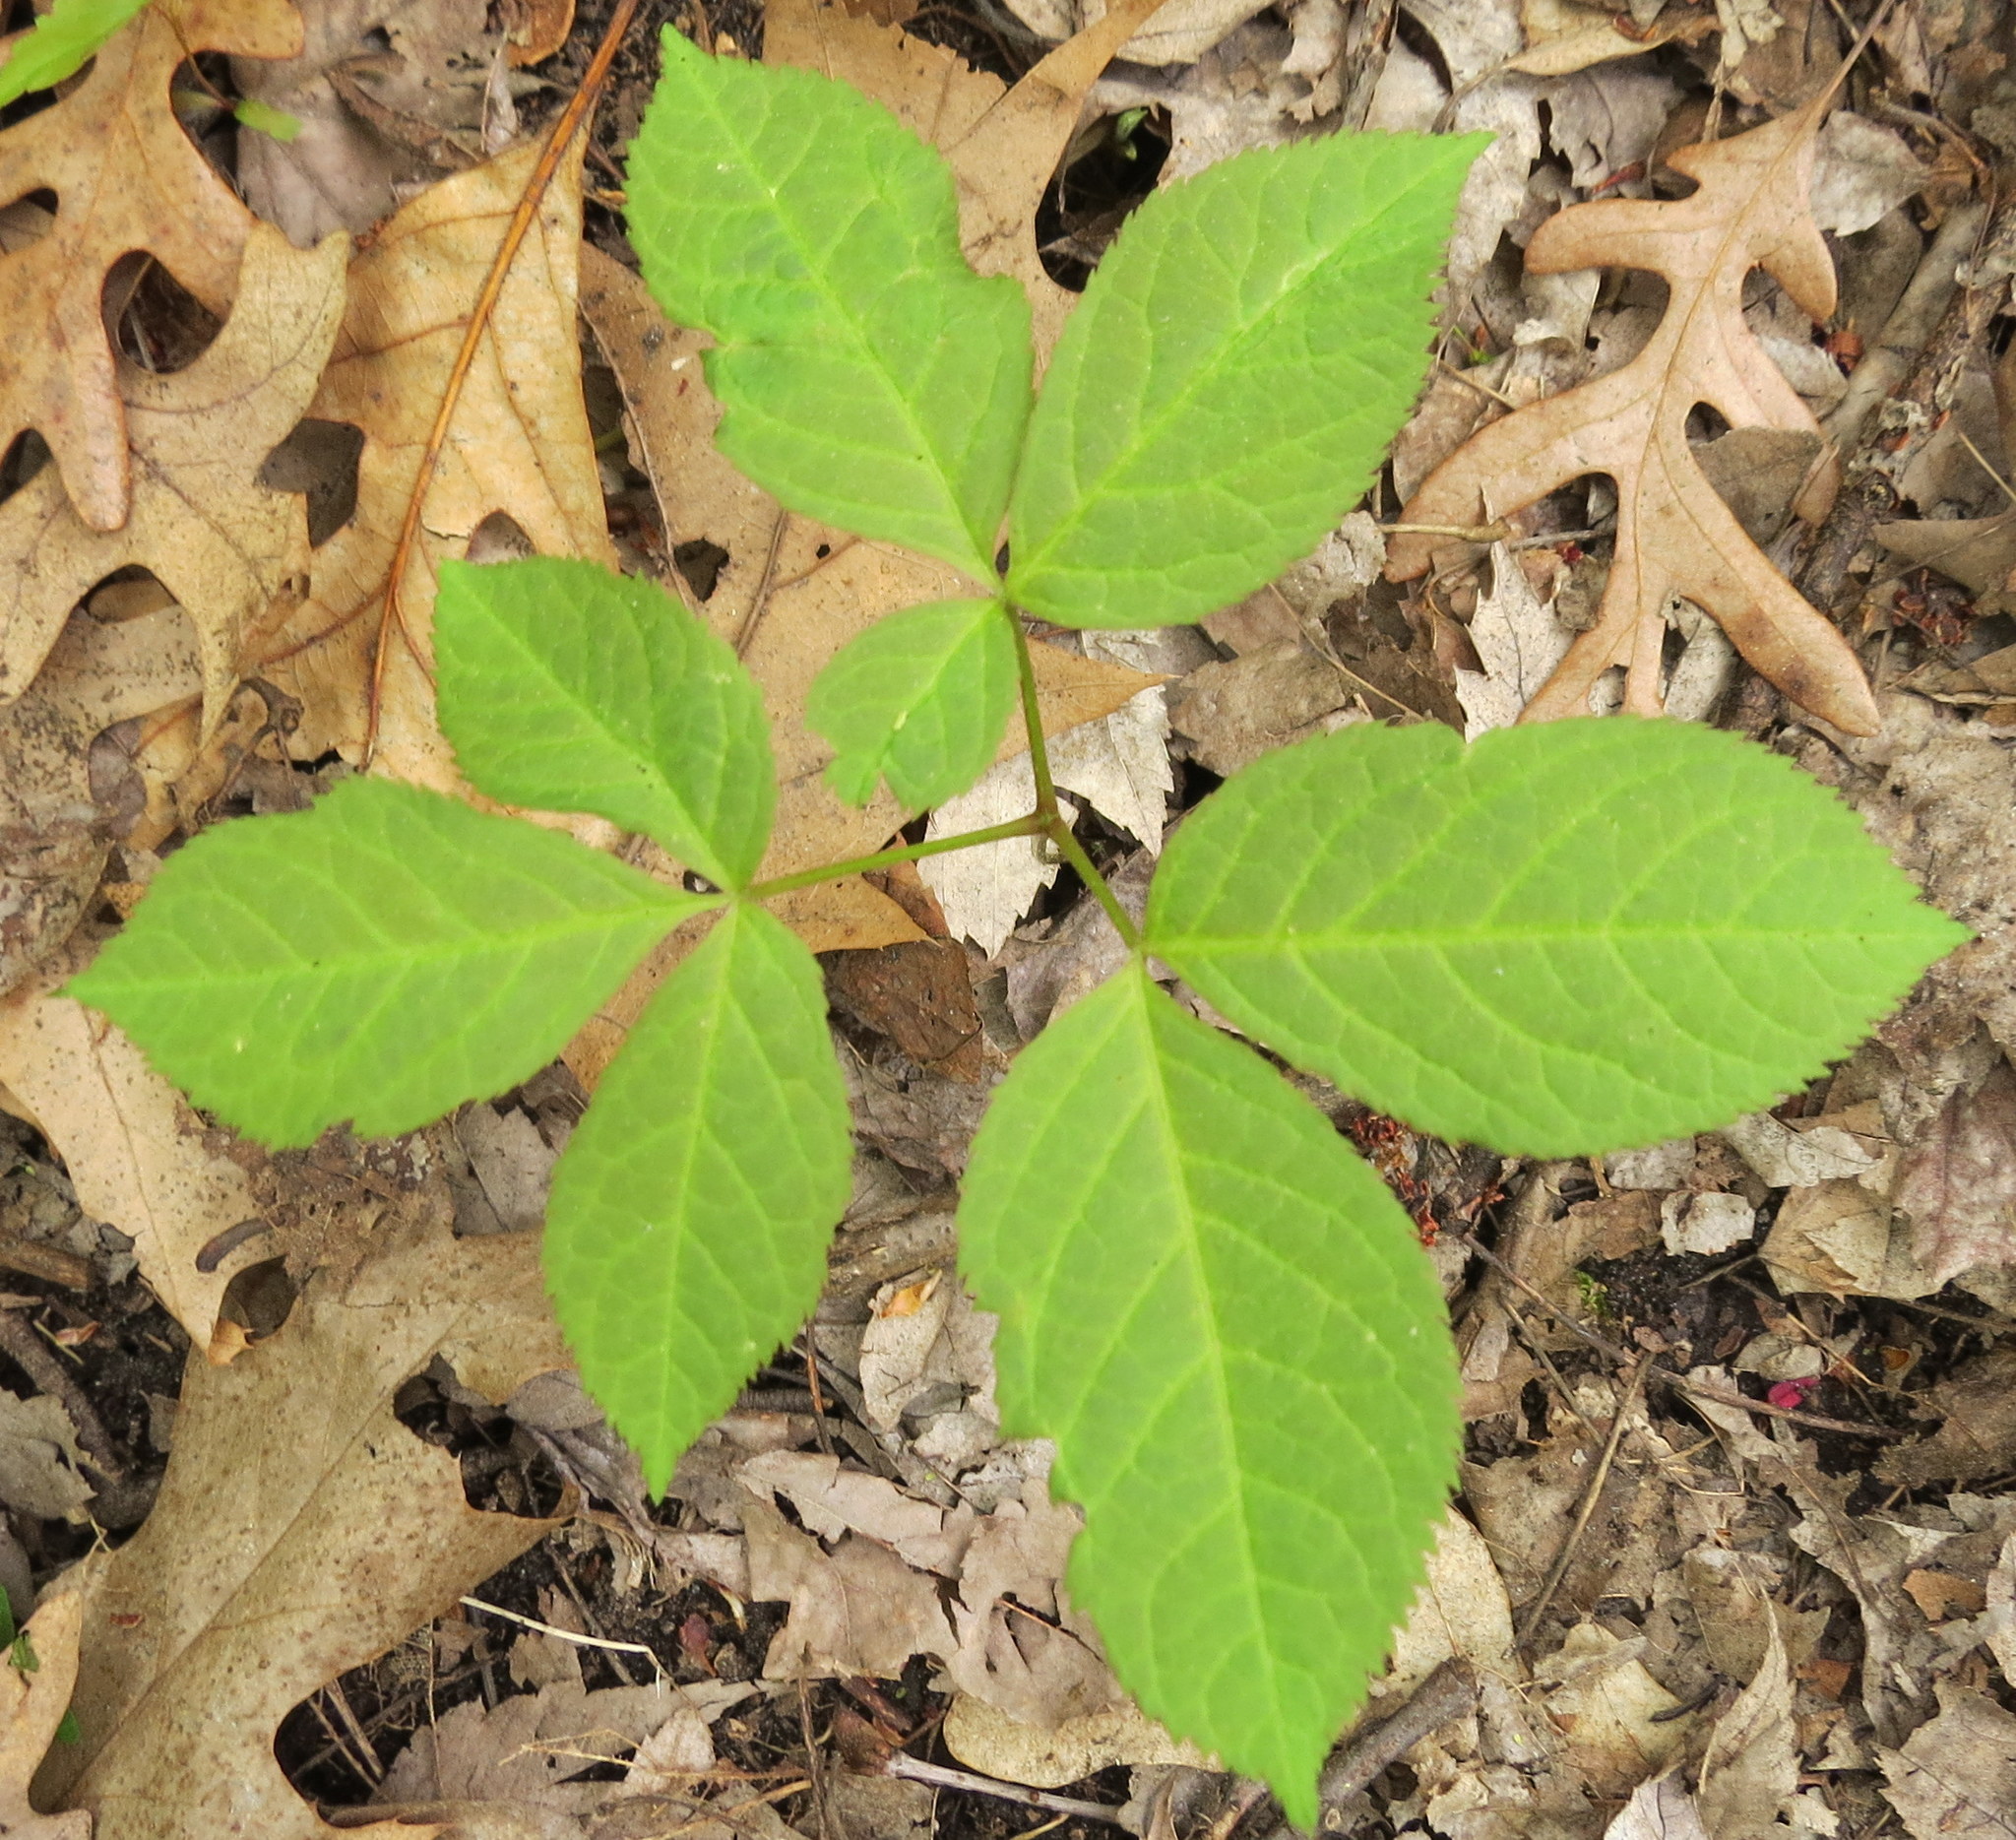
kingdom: Plantae
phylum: Tracheophyta
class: Magnoliopsida
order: Apiales
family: Araliaceae
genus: Aralia
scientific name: Aralia nudicaulis
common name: Wild sarsaparilla
